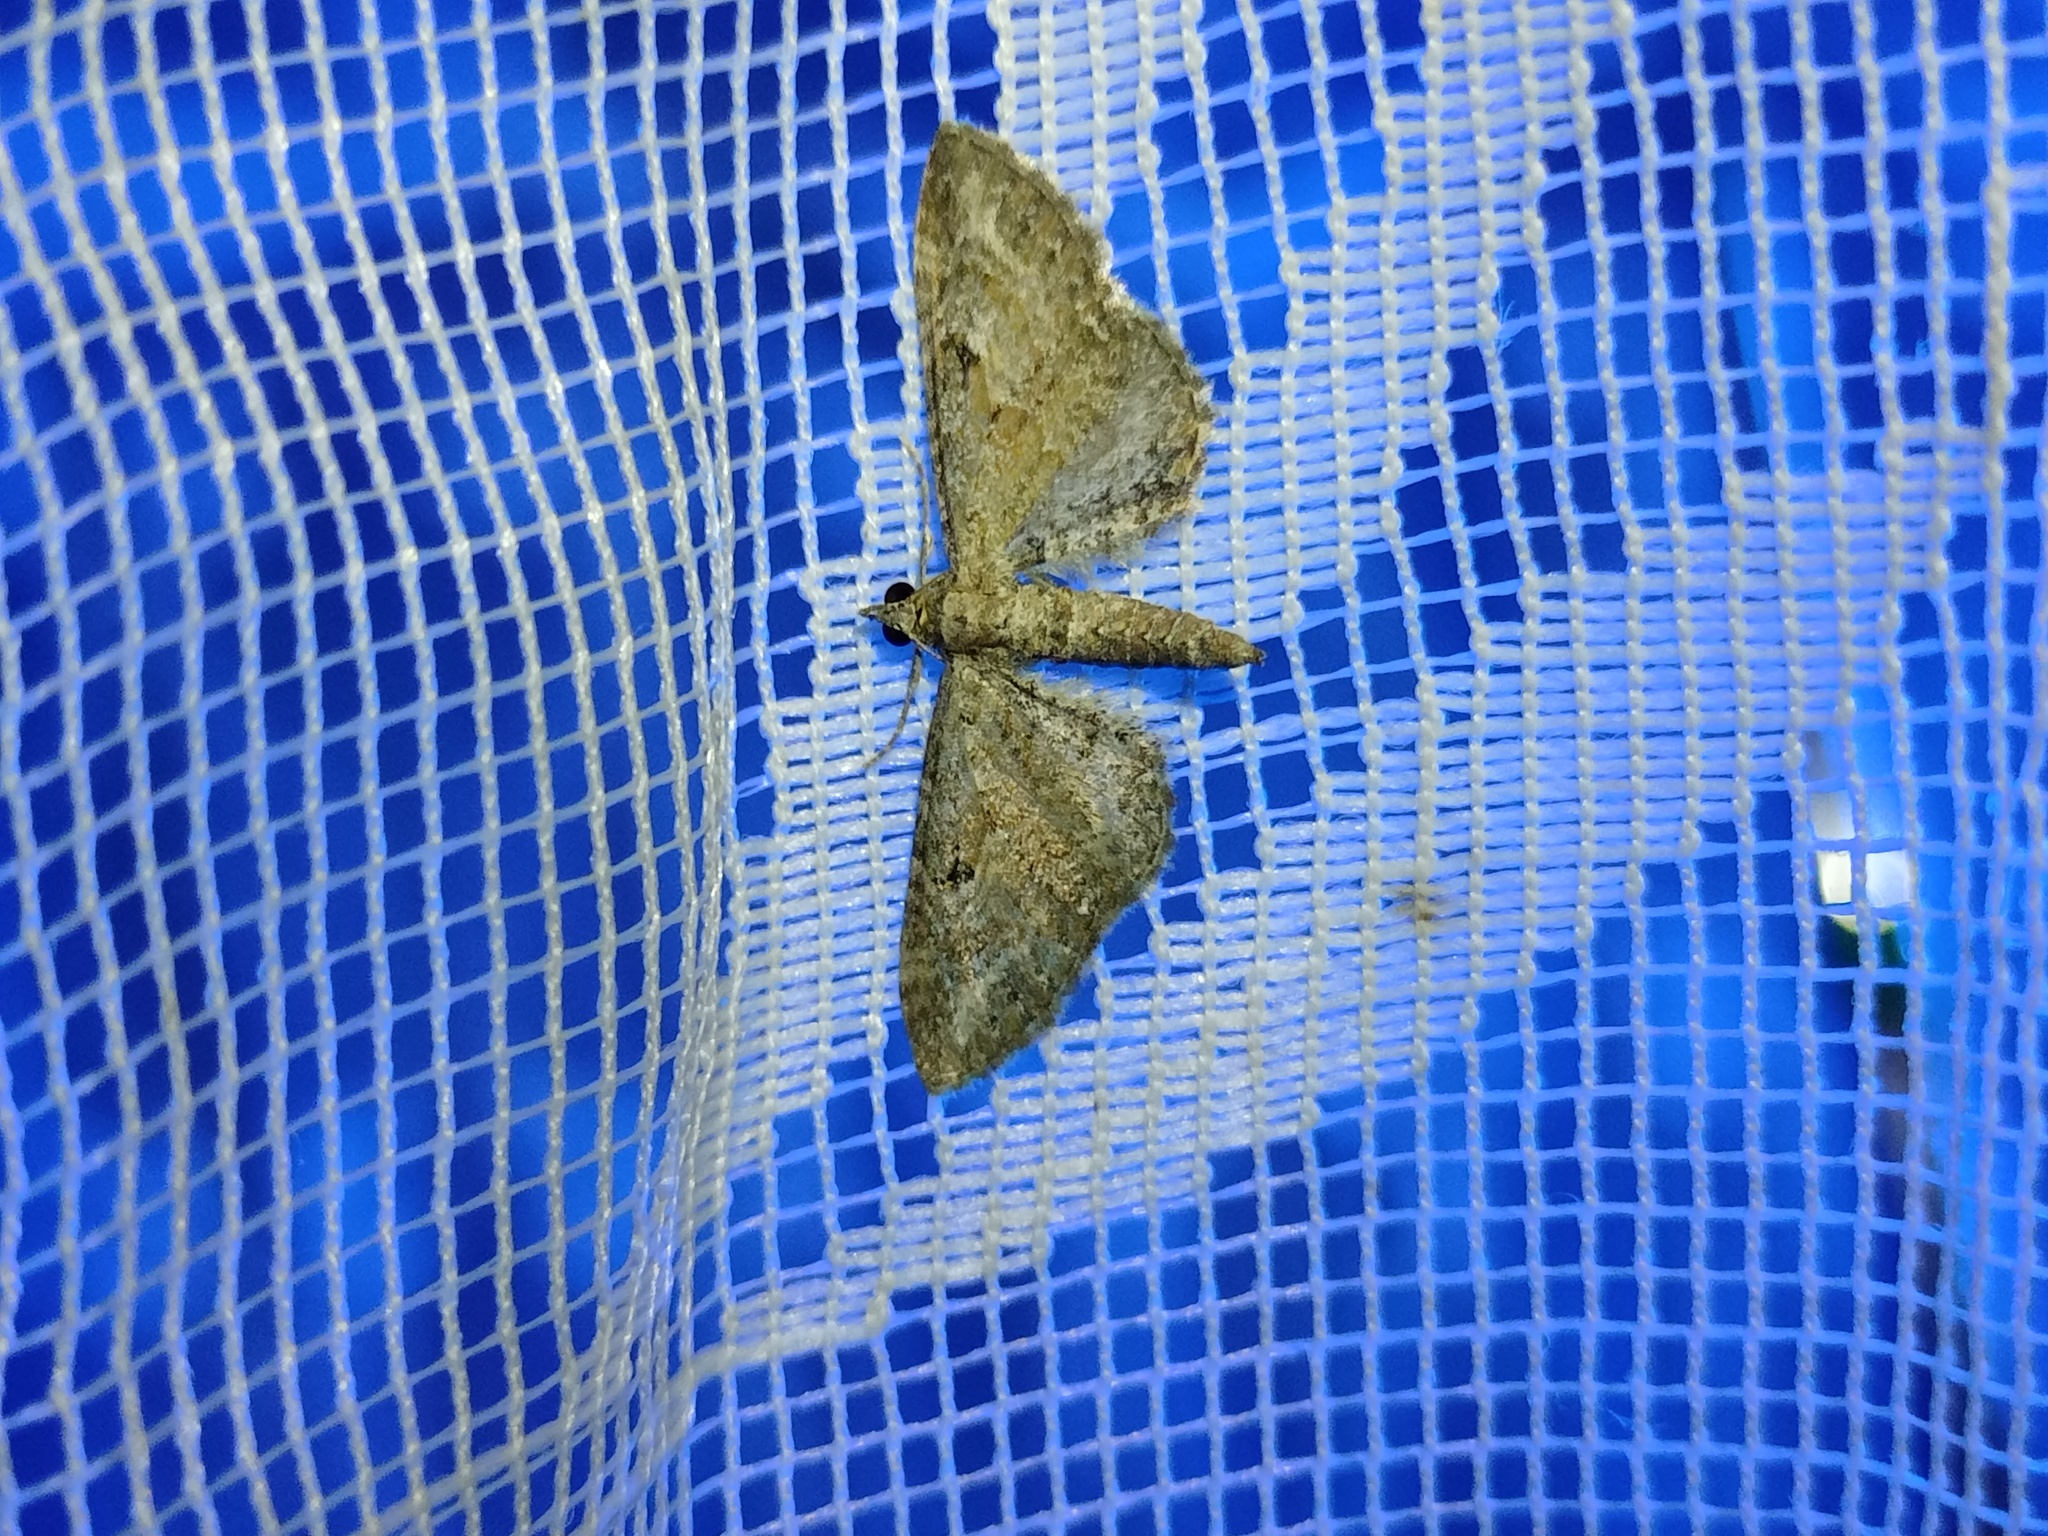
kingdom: Animalia
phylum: Arthropoda
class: Insecta
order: Lepidoptera
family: Geometridae
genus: Eupithecia
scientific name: Eupithecia millefoliata
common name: Yarrow pug
